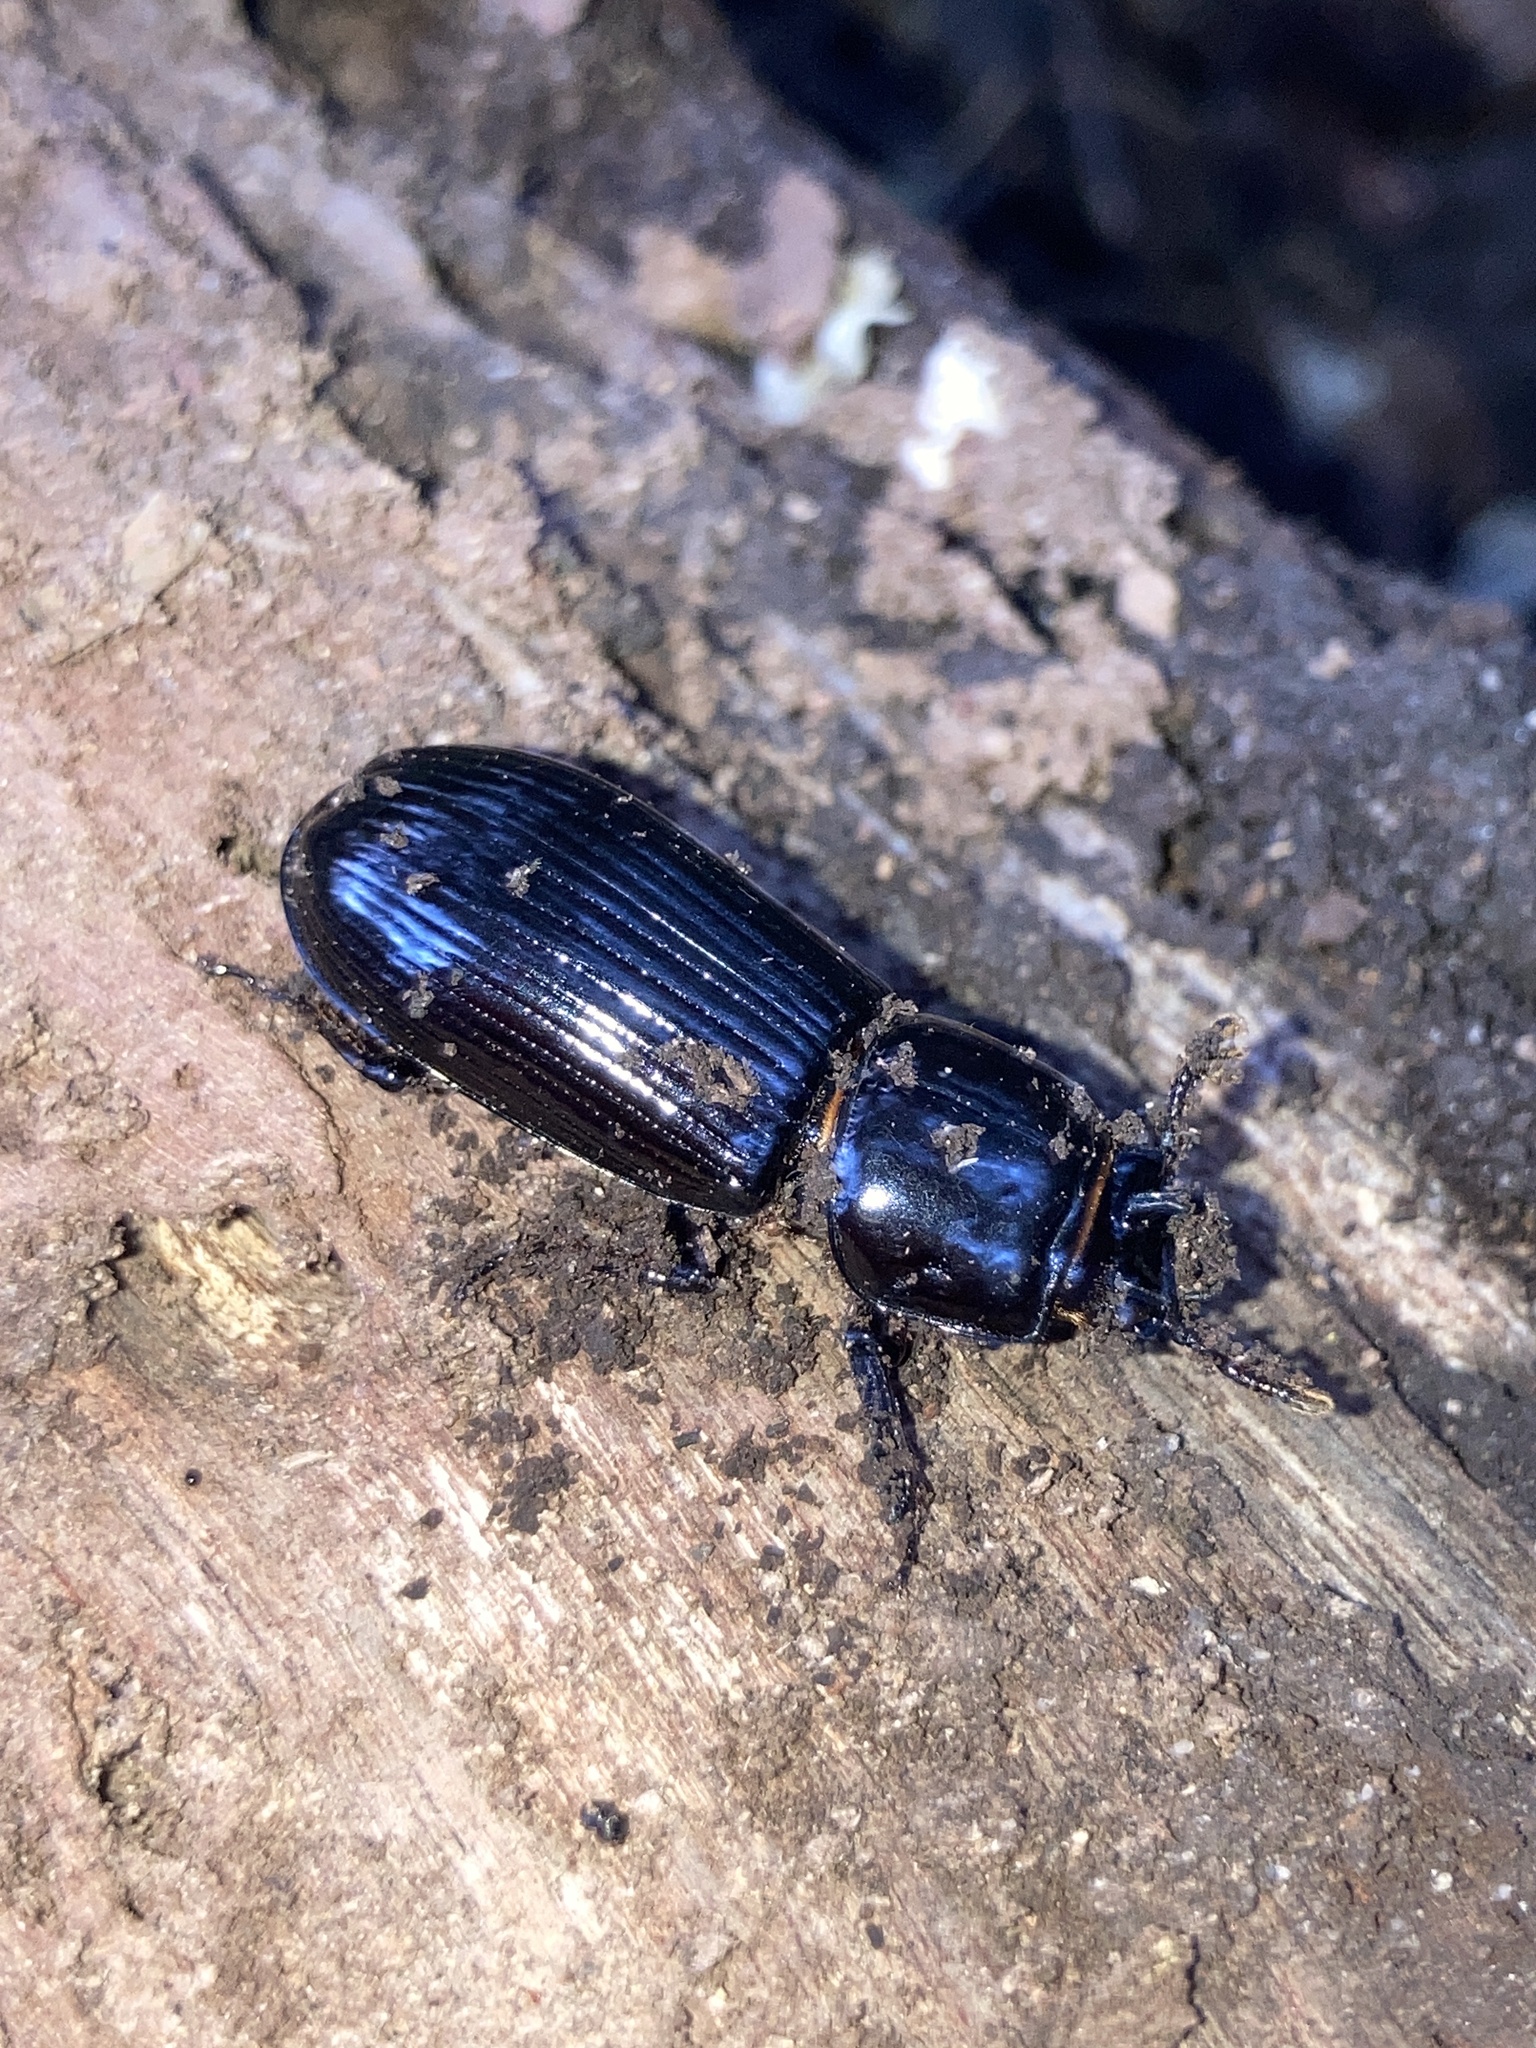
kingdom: Animalia
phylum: Arthropoda
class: Insecta
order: Coleoptera
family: Passalidae
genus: Aulacocyclus
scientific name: Aulacocyclus edentulus
